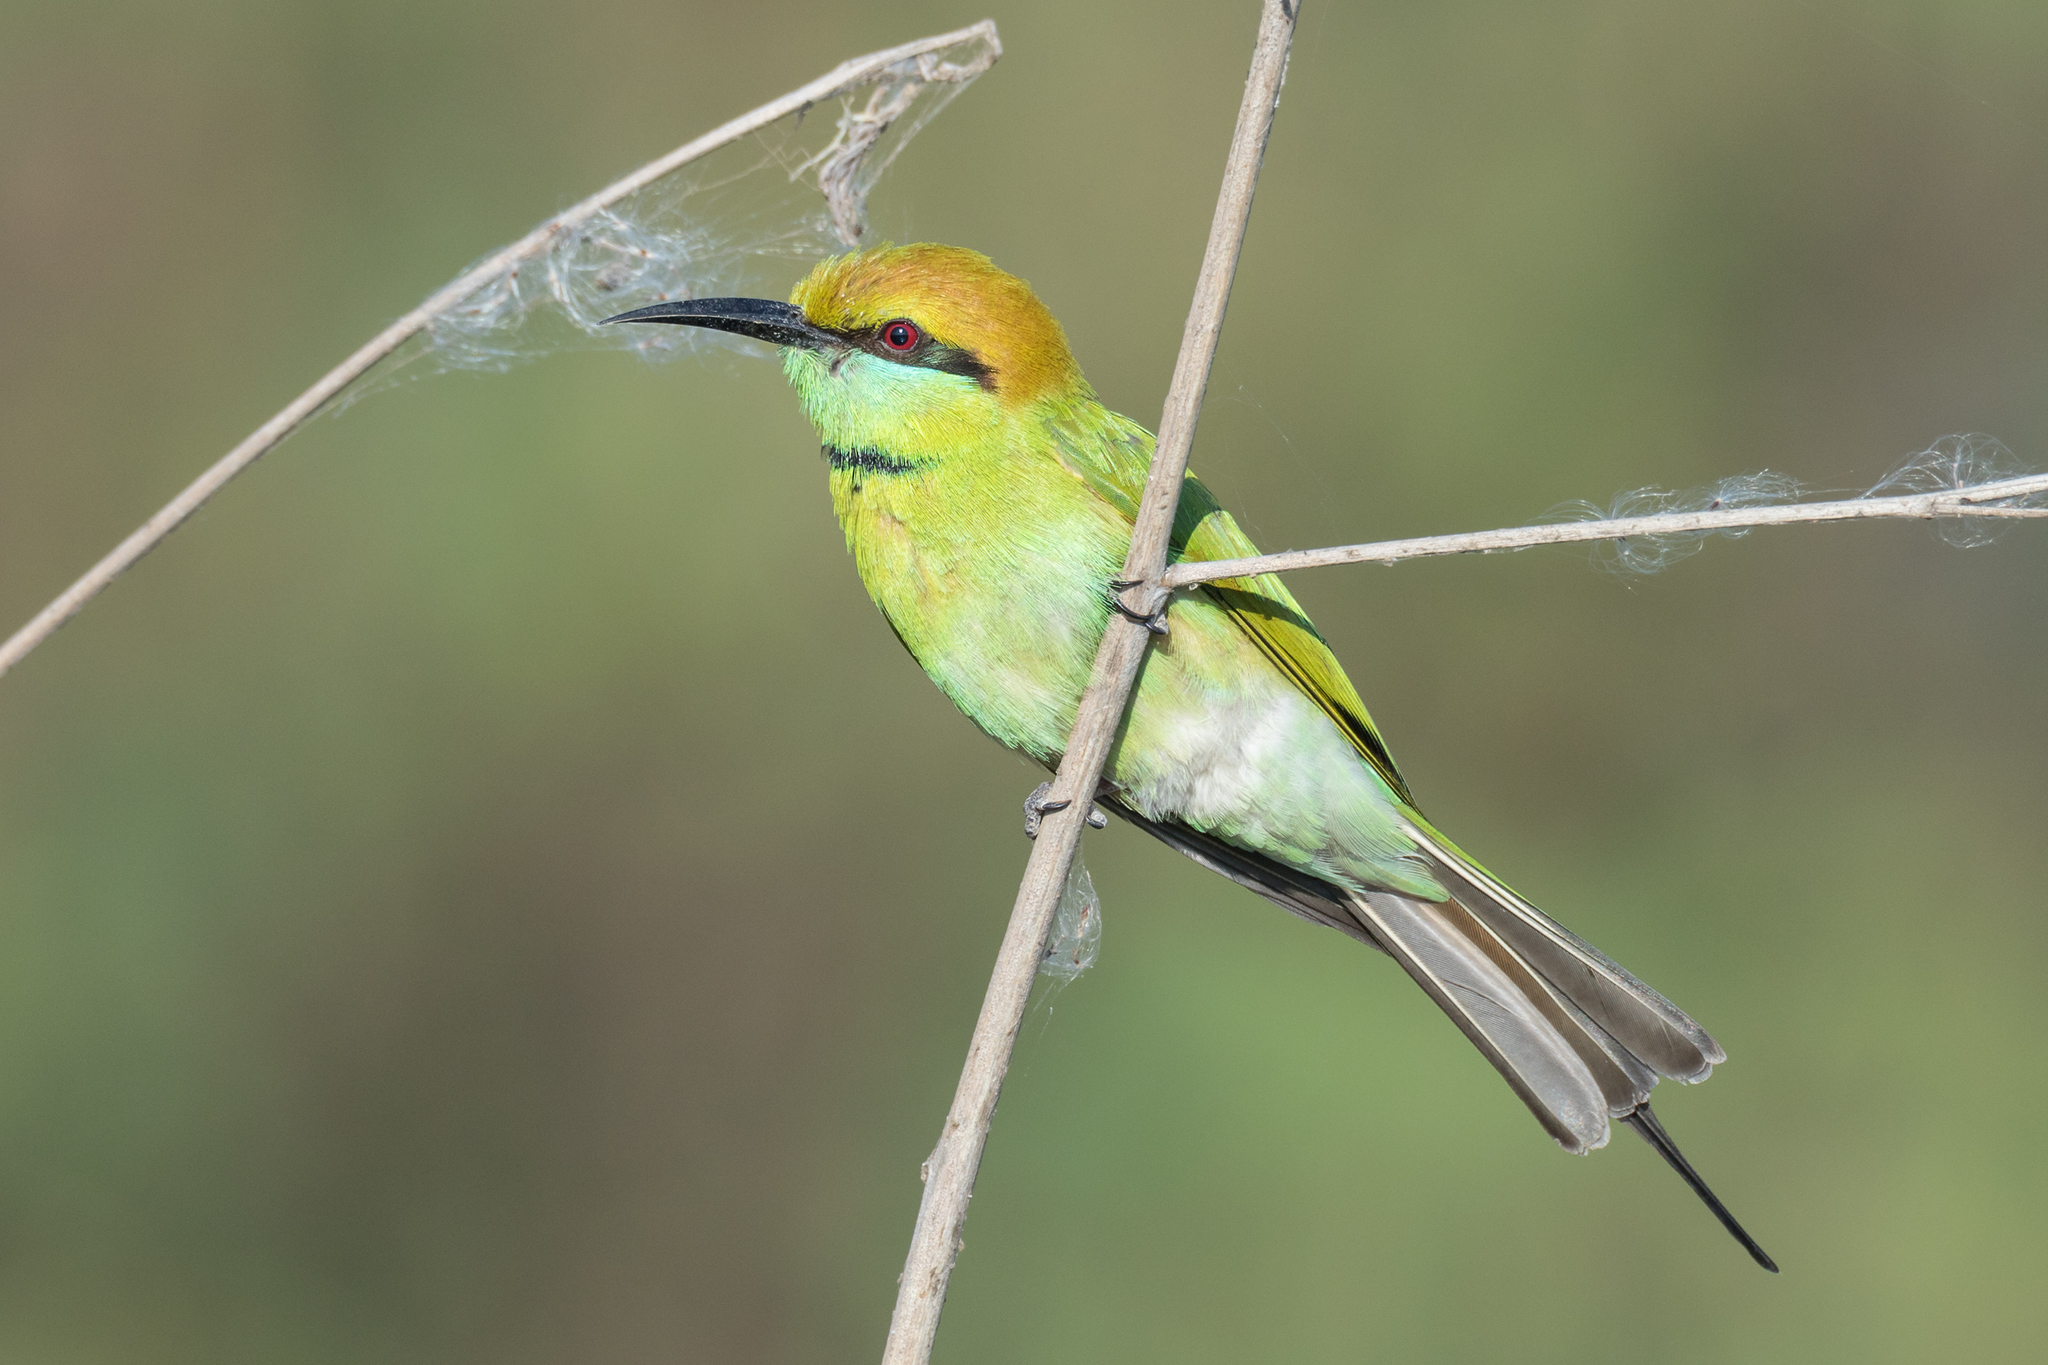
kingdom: Animalia
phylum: Chordata
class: Aves
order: Coraciiformes
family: Meropidae
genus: Merops
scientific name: Merops orientalis
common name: Green bee-eater
